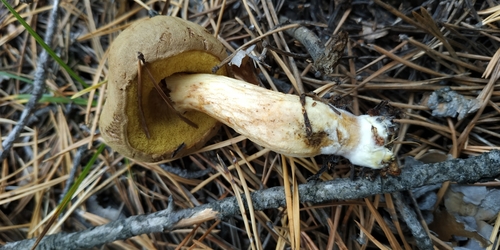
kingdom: Fungi
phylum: Basidiomycota
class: Agaricomycetes
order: Boletales
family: Boletaceae
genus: Xerocomus
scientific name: Xerocomus subtomentosus
